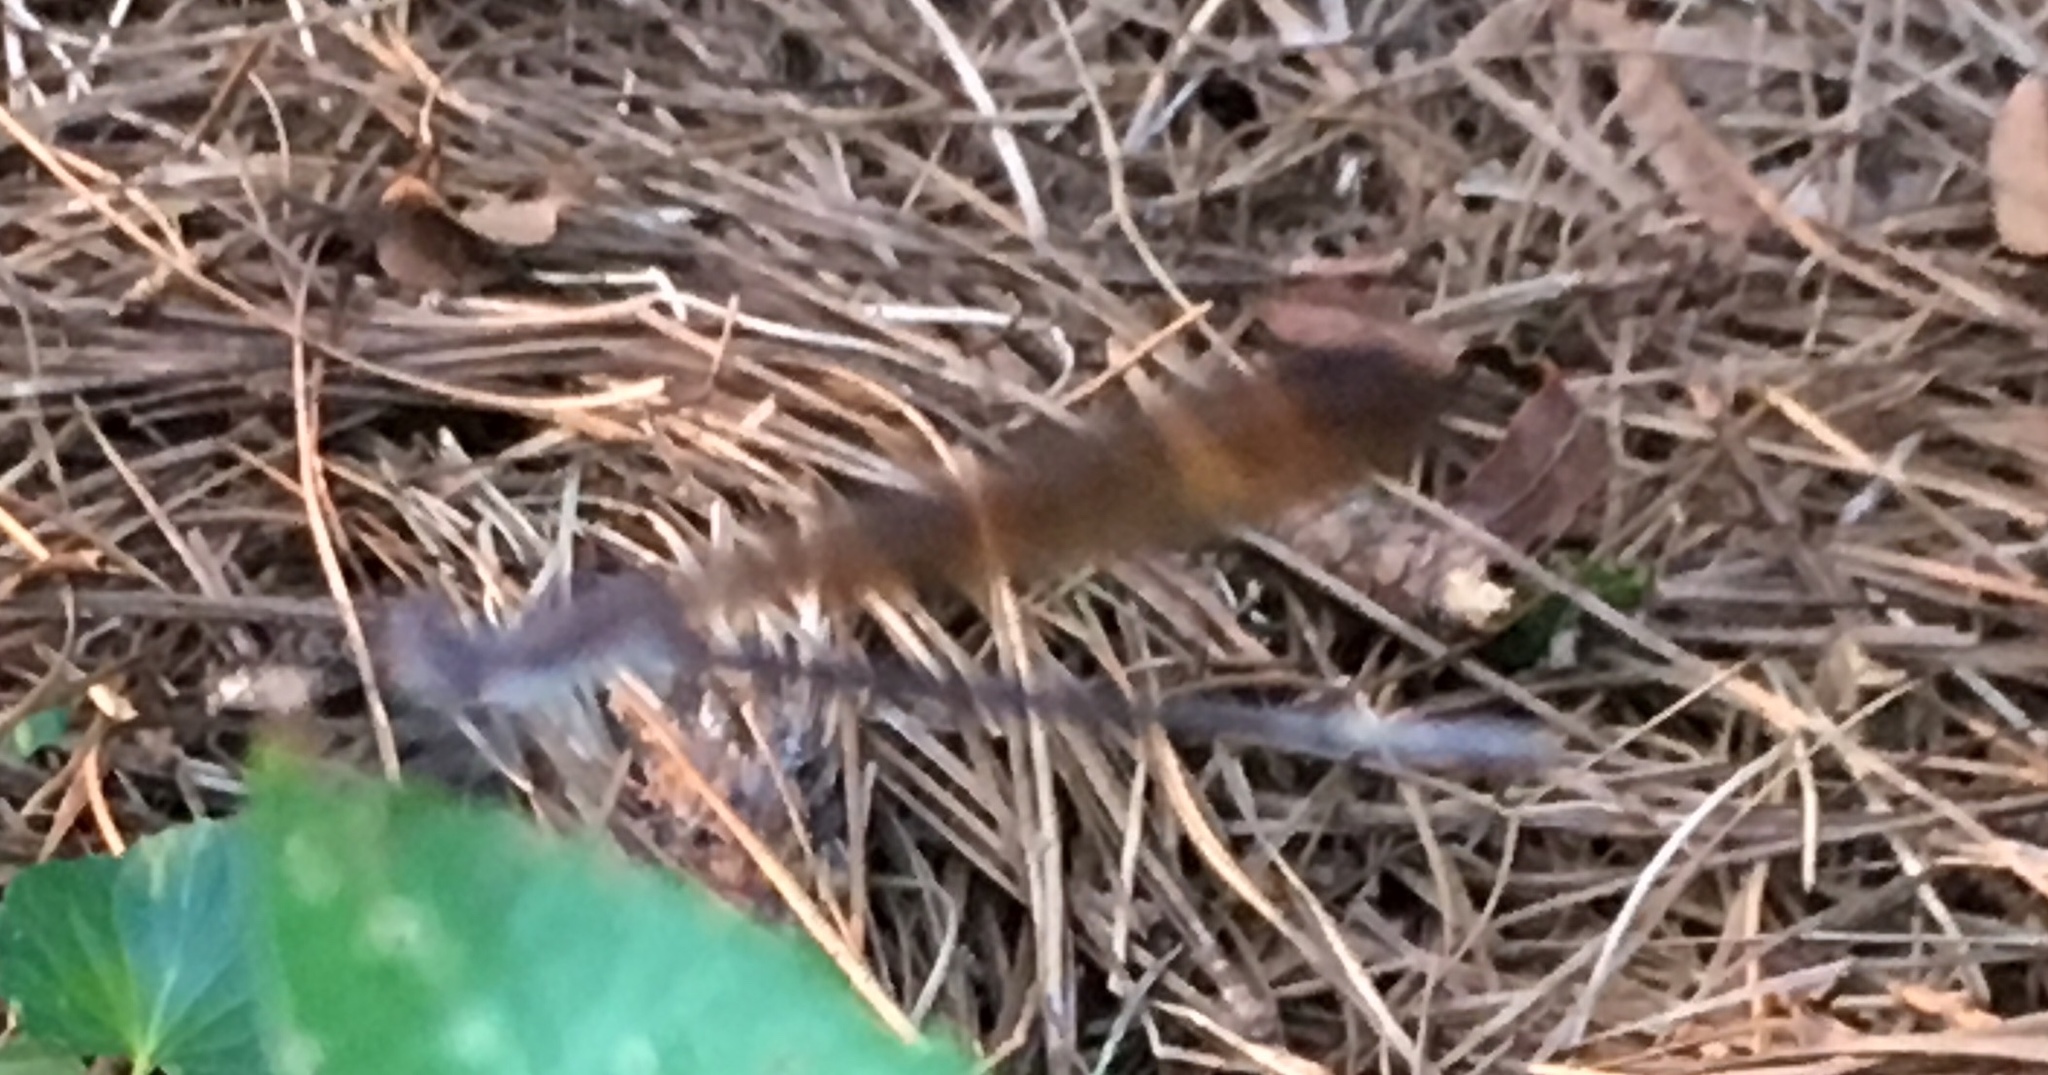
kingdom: Animalia
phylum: Arthropoda
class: Insecta
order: Odonata
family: Coenagrionidae
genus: Argia
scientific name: Argia fumipennis
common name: Variable dancer
